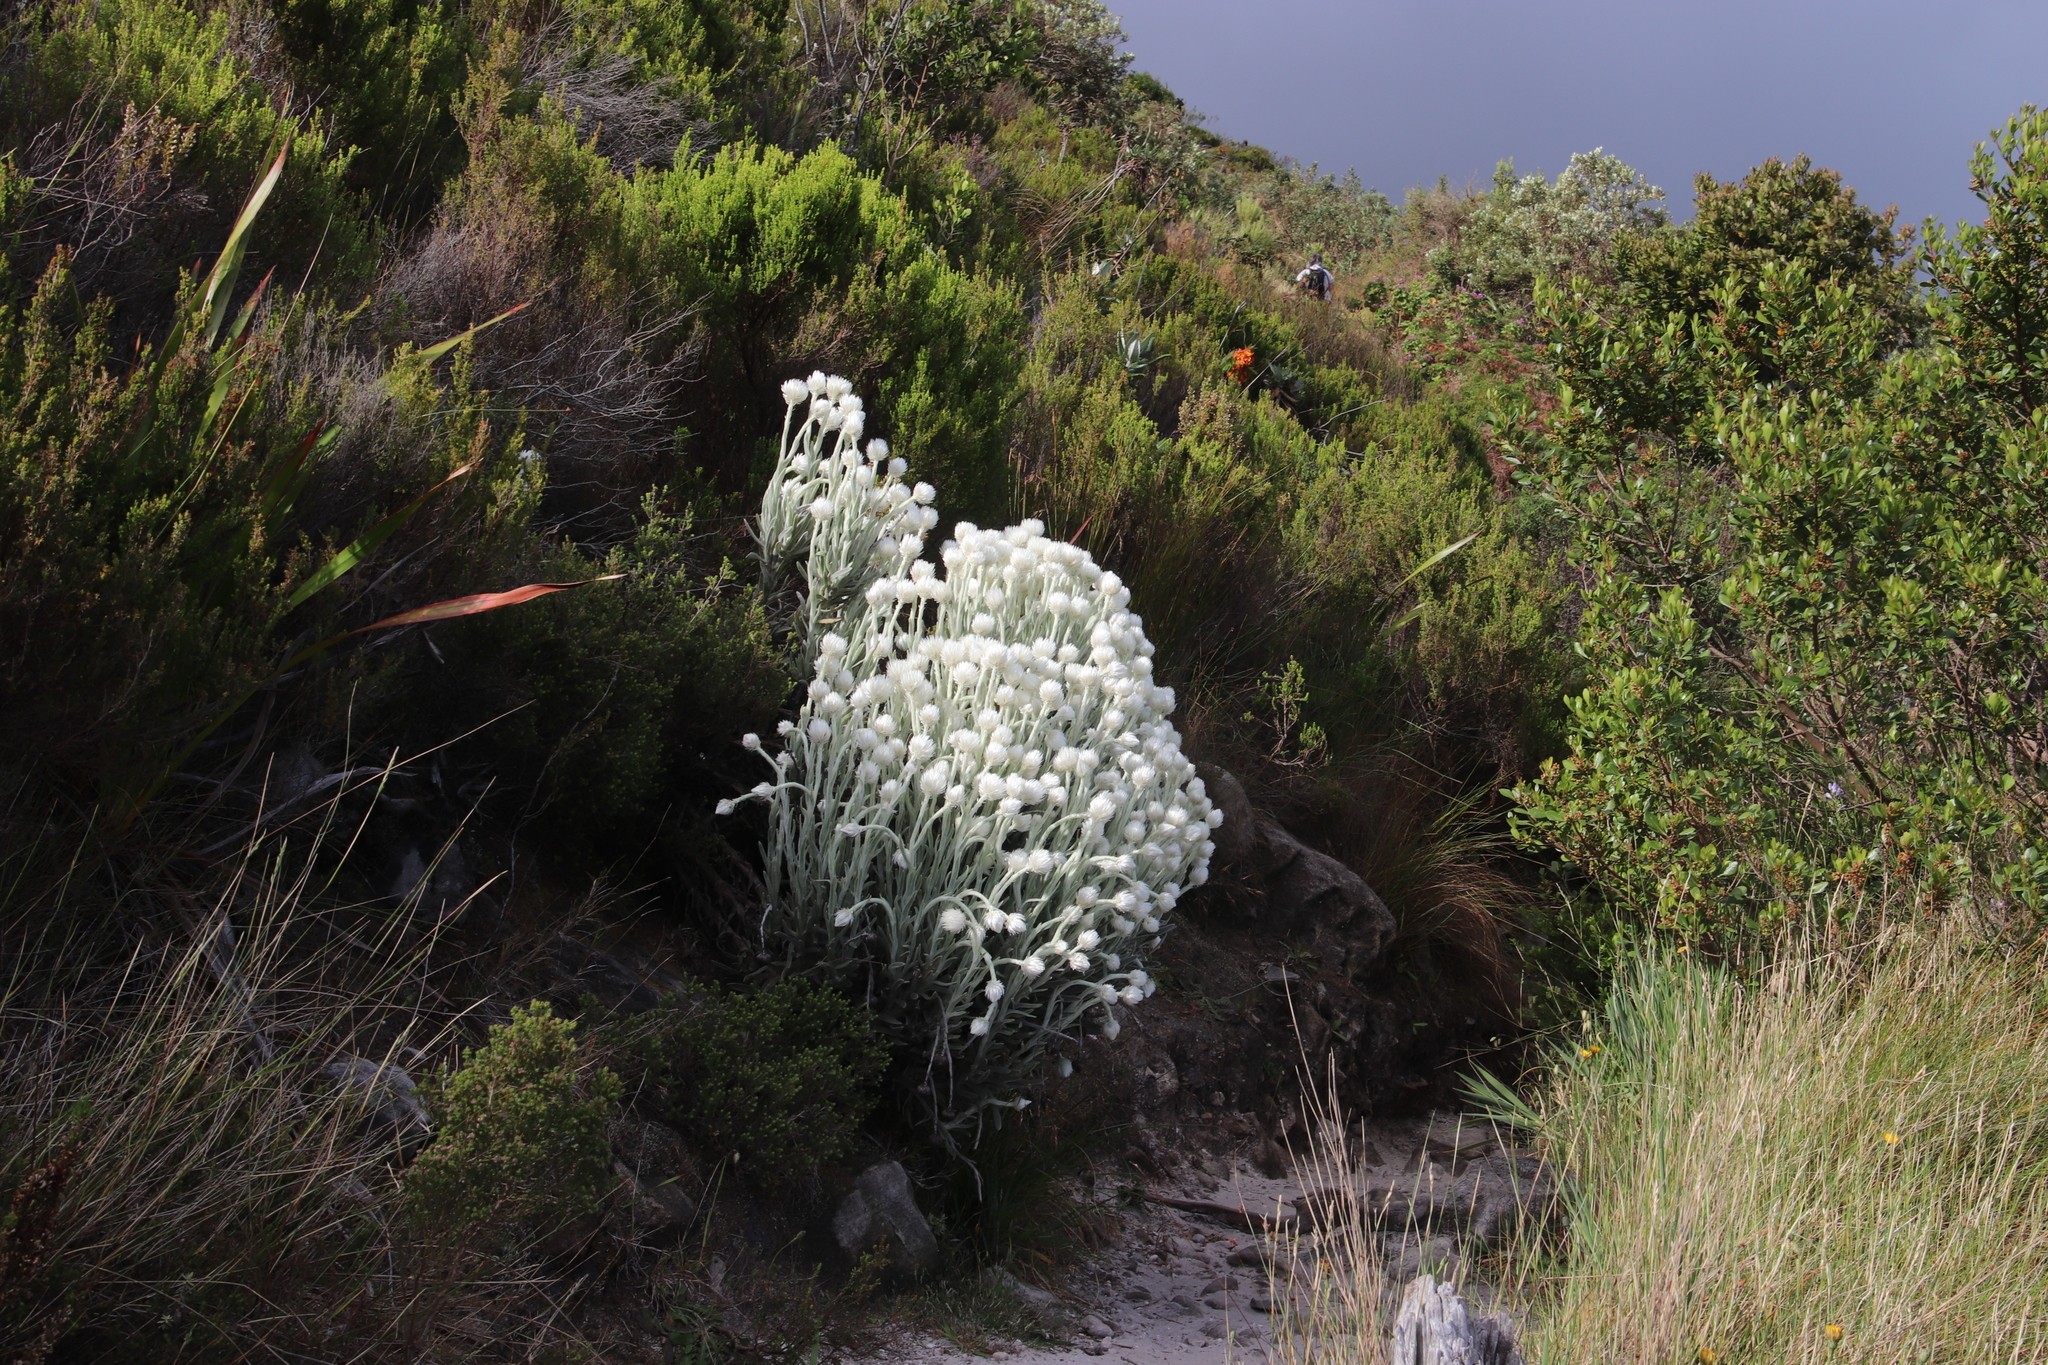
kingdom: Plantae
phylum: Tracheophyta
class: Magnoliopsida
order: Asterales
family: Asteraceae
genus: Syncarpha
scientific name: Syncarpha vestita
